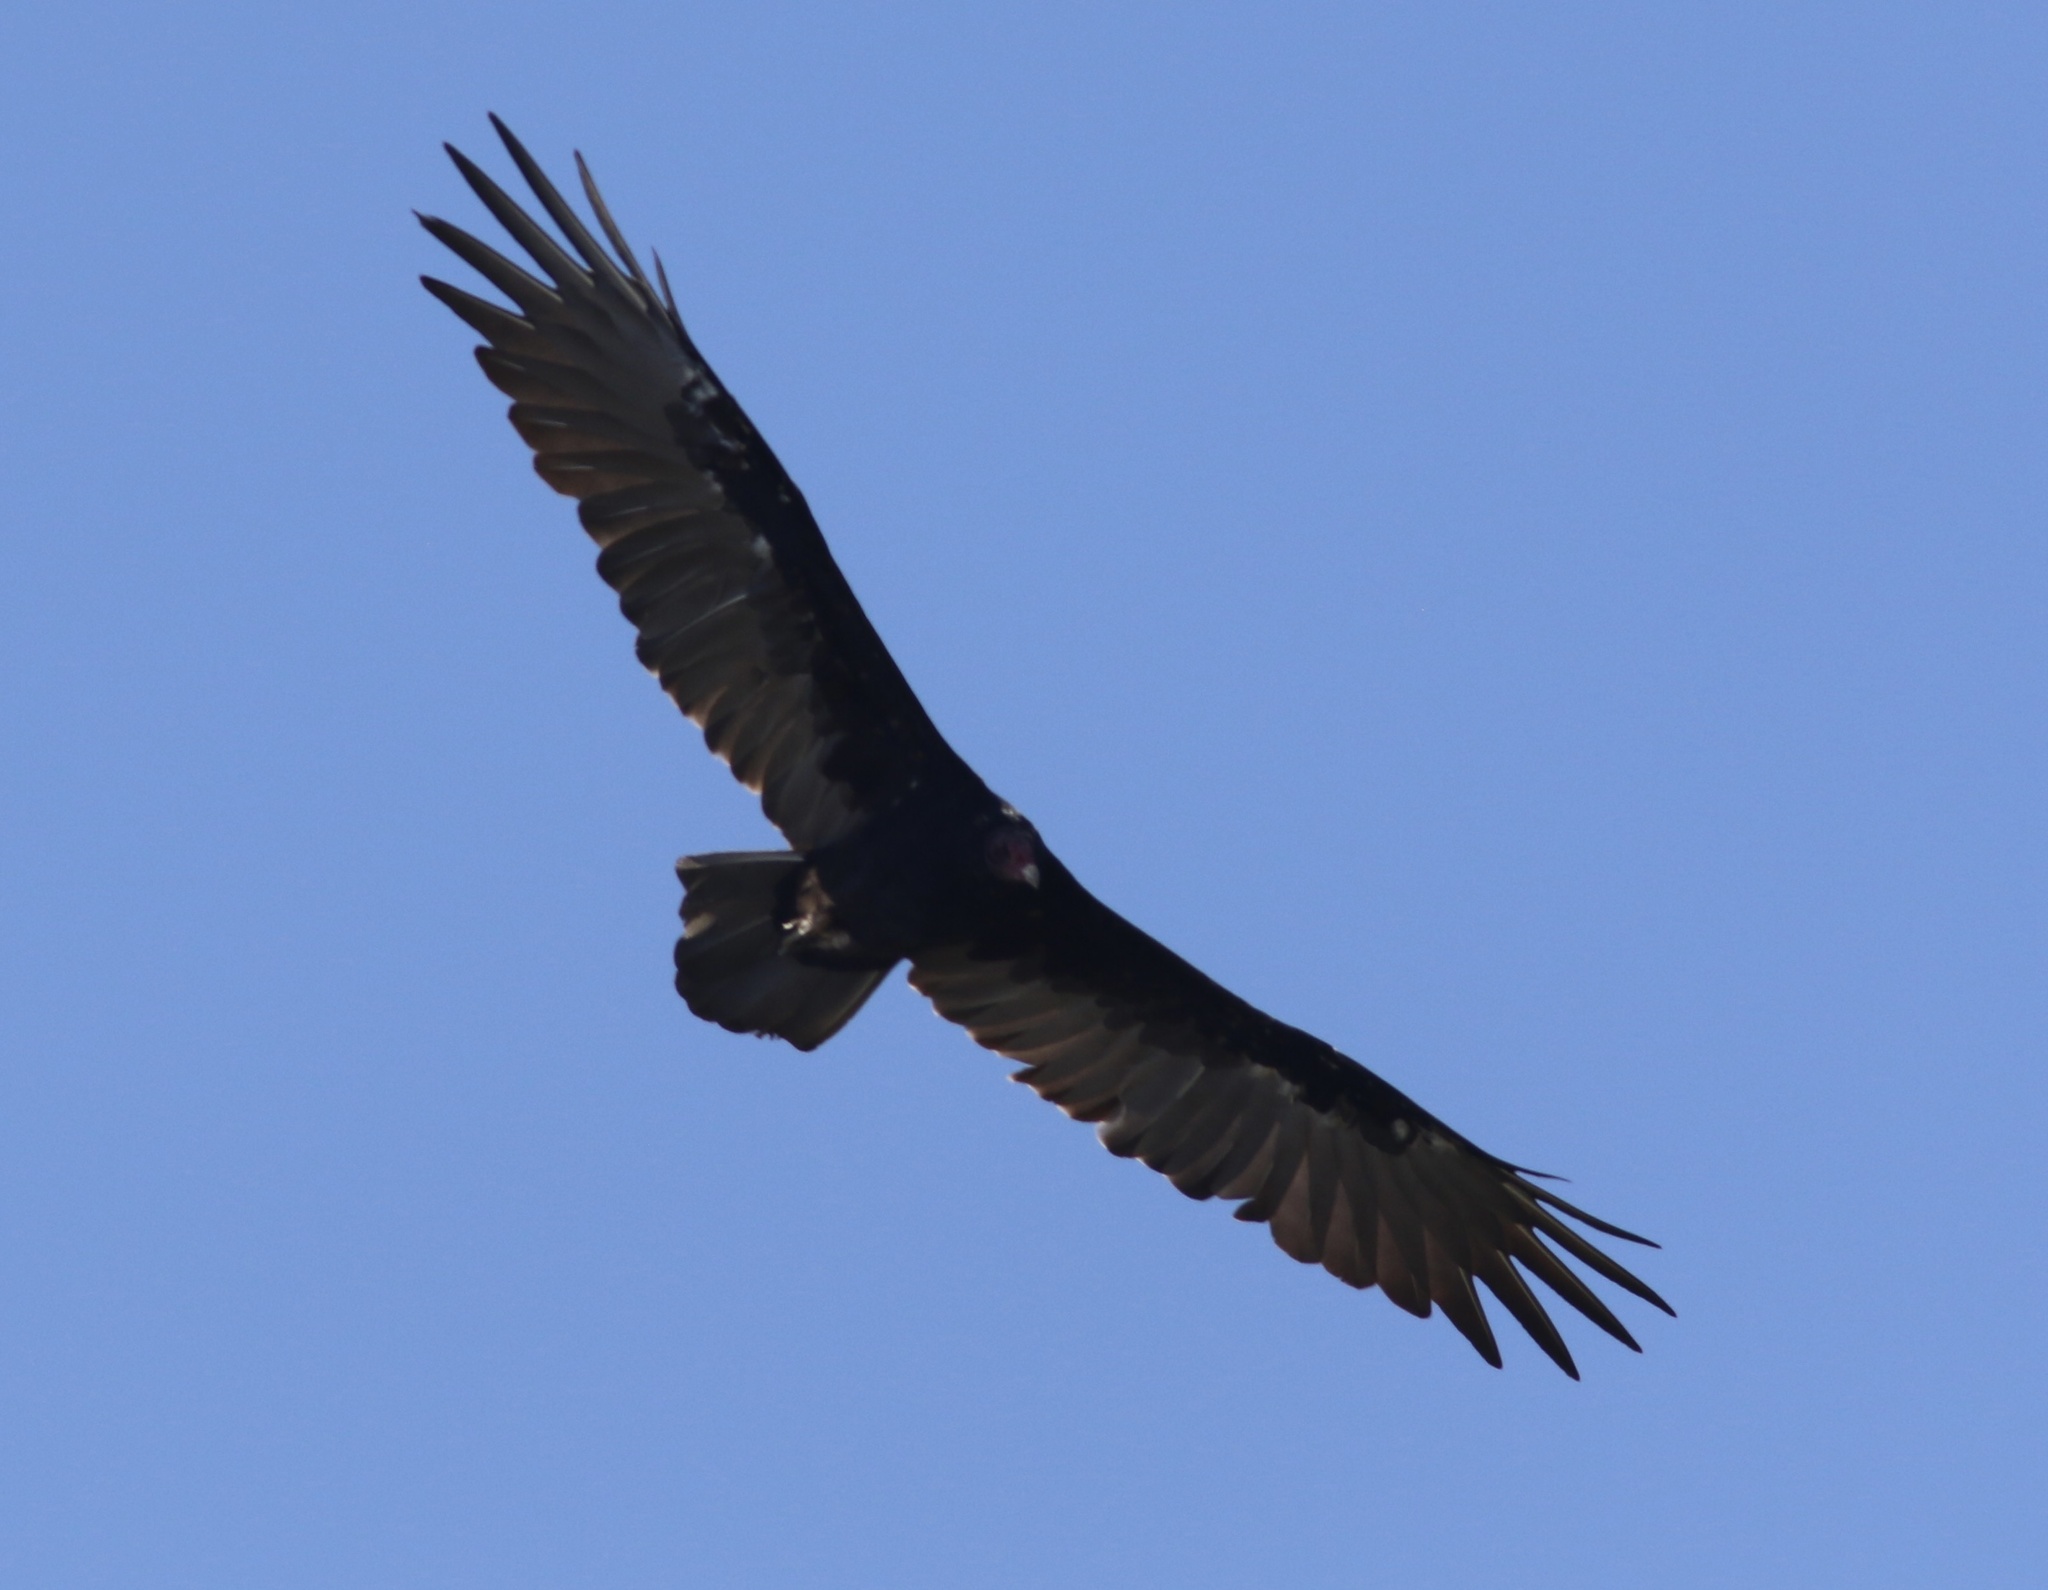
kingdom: Animalia
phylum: Chordata
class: Aves
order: Accipitriformes
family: Cathartidae
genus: Cathartes
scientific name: Cathartes aura
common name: Turkey vulture
